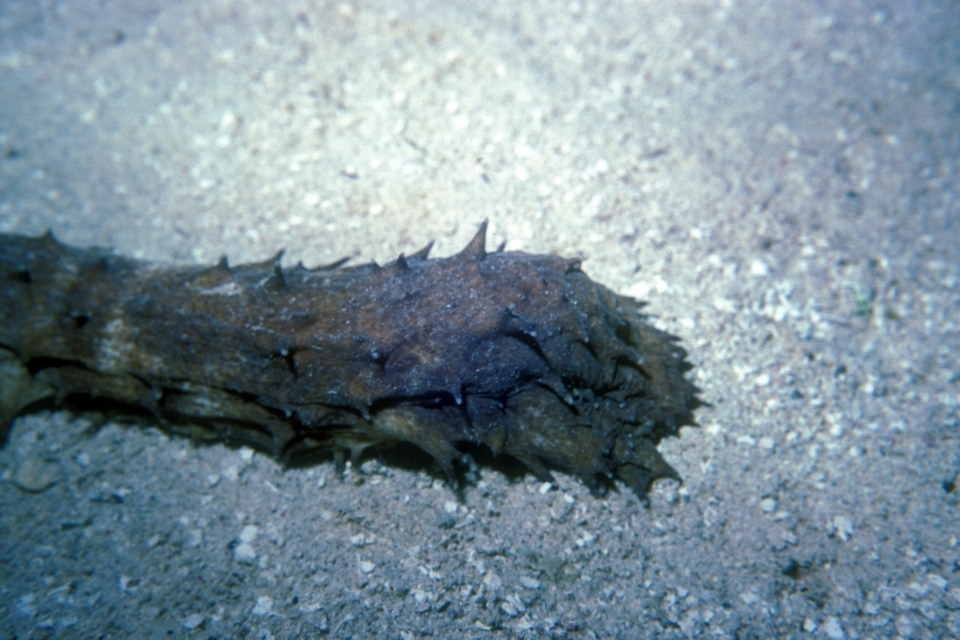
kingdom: Animalia
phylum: Echinodermata
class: Holothuroidea
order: Holothuriida
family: Holothuriidae
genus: Holothuria
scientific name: Holothuria thomasi
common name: Tiger tail sea cocumber
